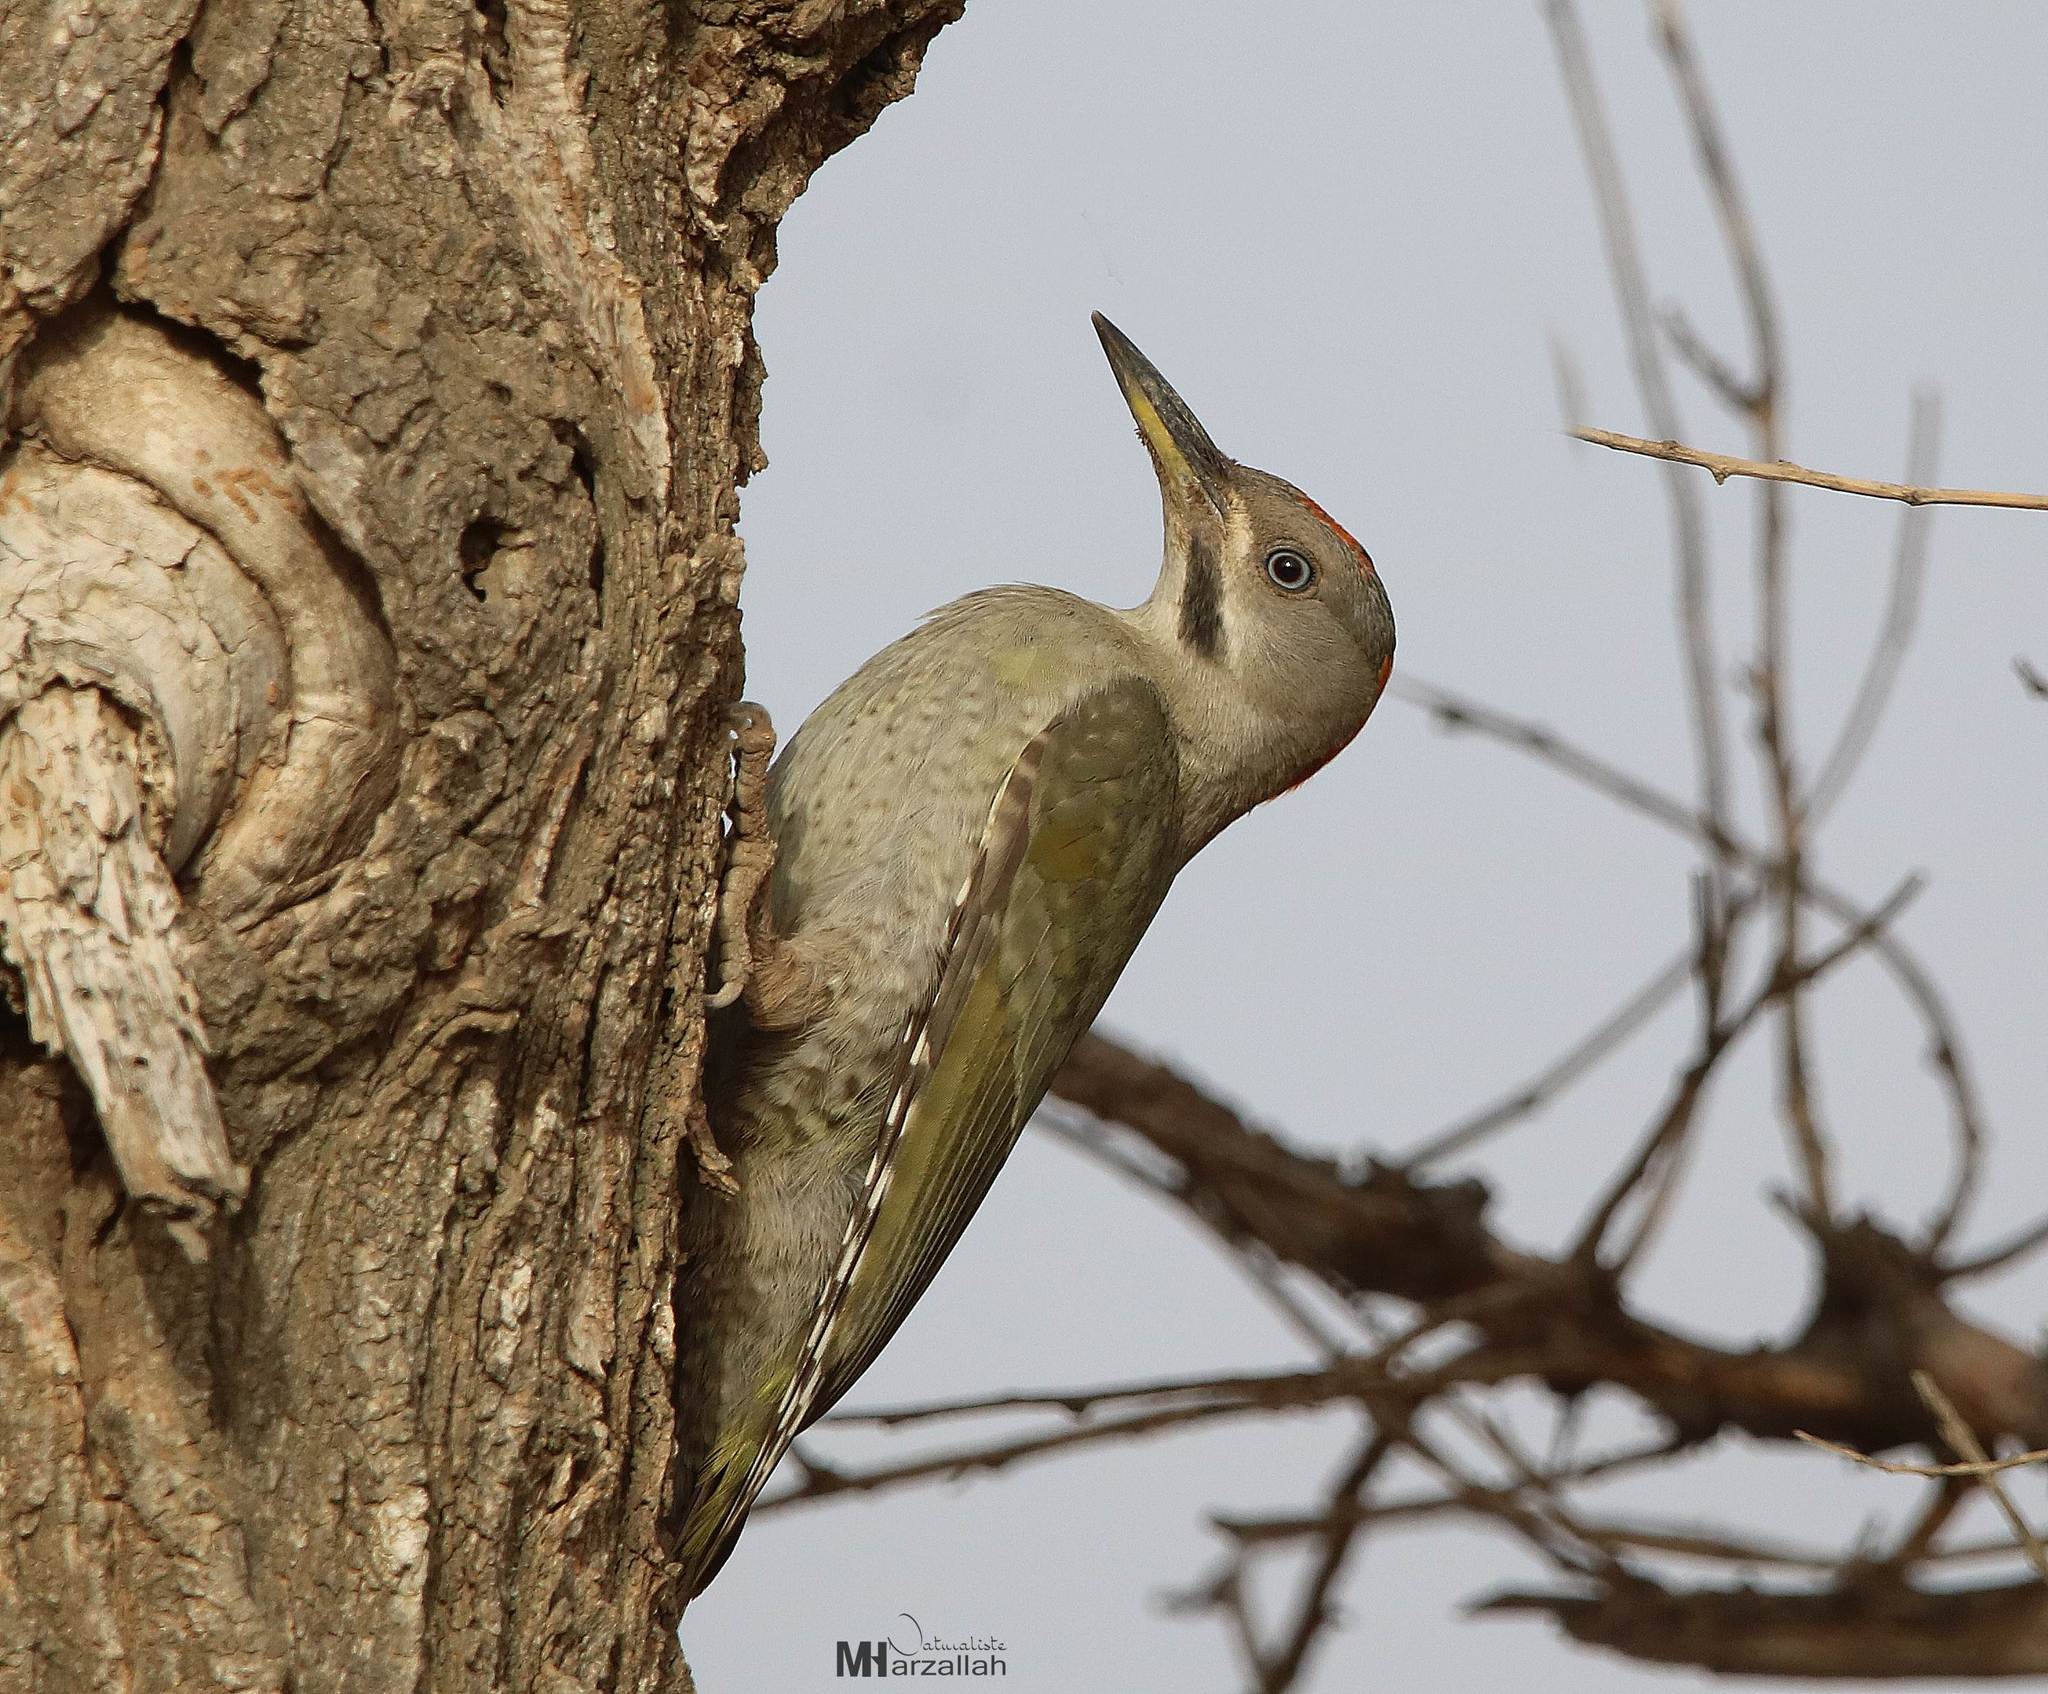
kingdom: Animalia
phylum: Chordata
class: Aves
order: Piciformes
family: Picidae
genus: Picus
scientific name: Picus vaillantii
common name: Levaillant's woodpecker
